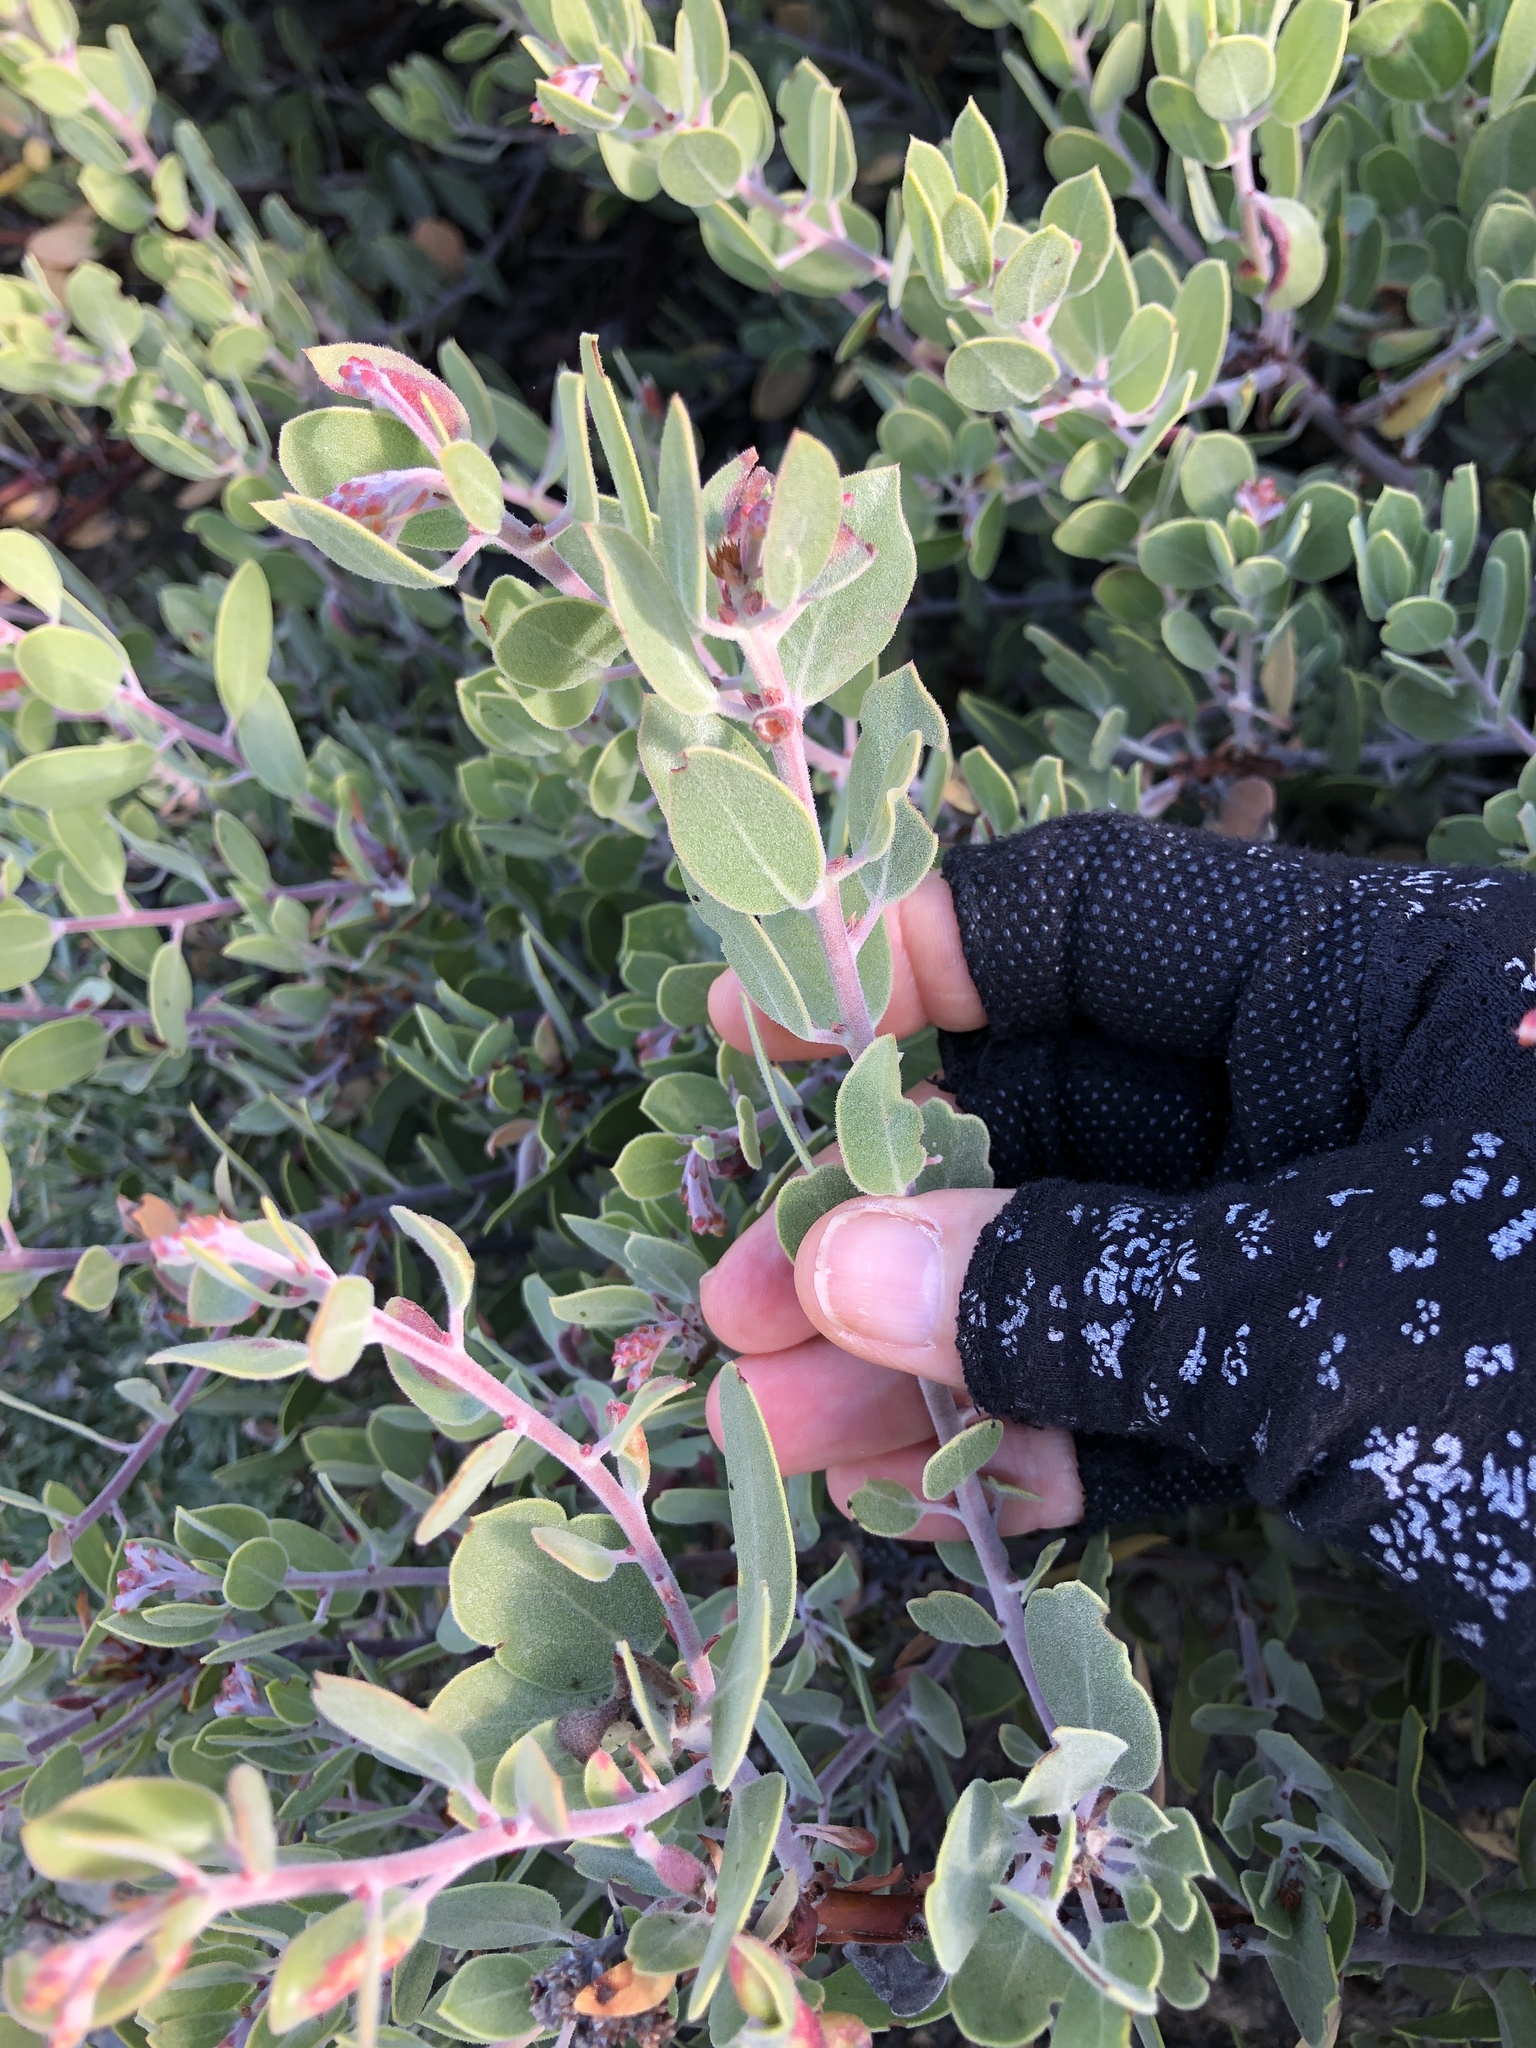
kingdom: Plantae
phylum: Tracheophyta
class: Magnoliopsida
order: Ericales
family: Ericaceae
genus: Arctostaphylos
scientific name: Arctostaphylos montana
